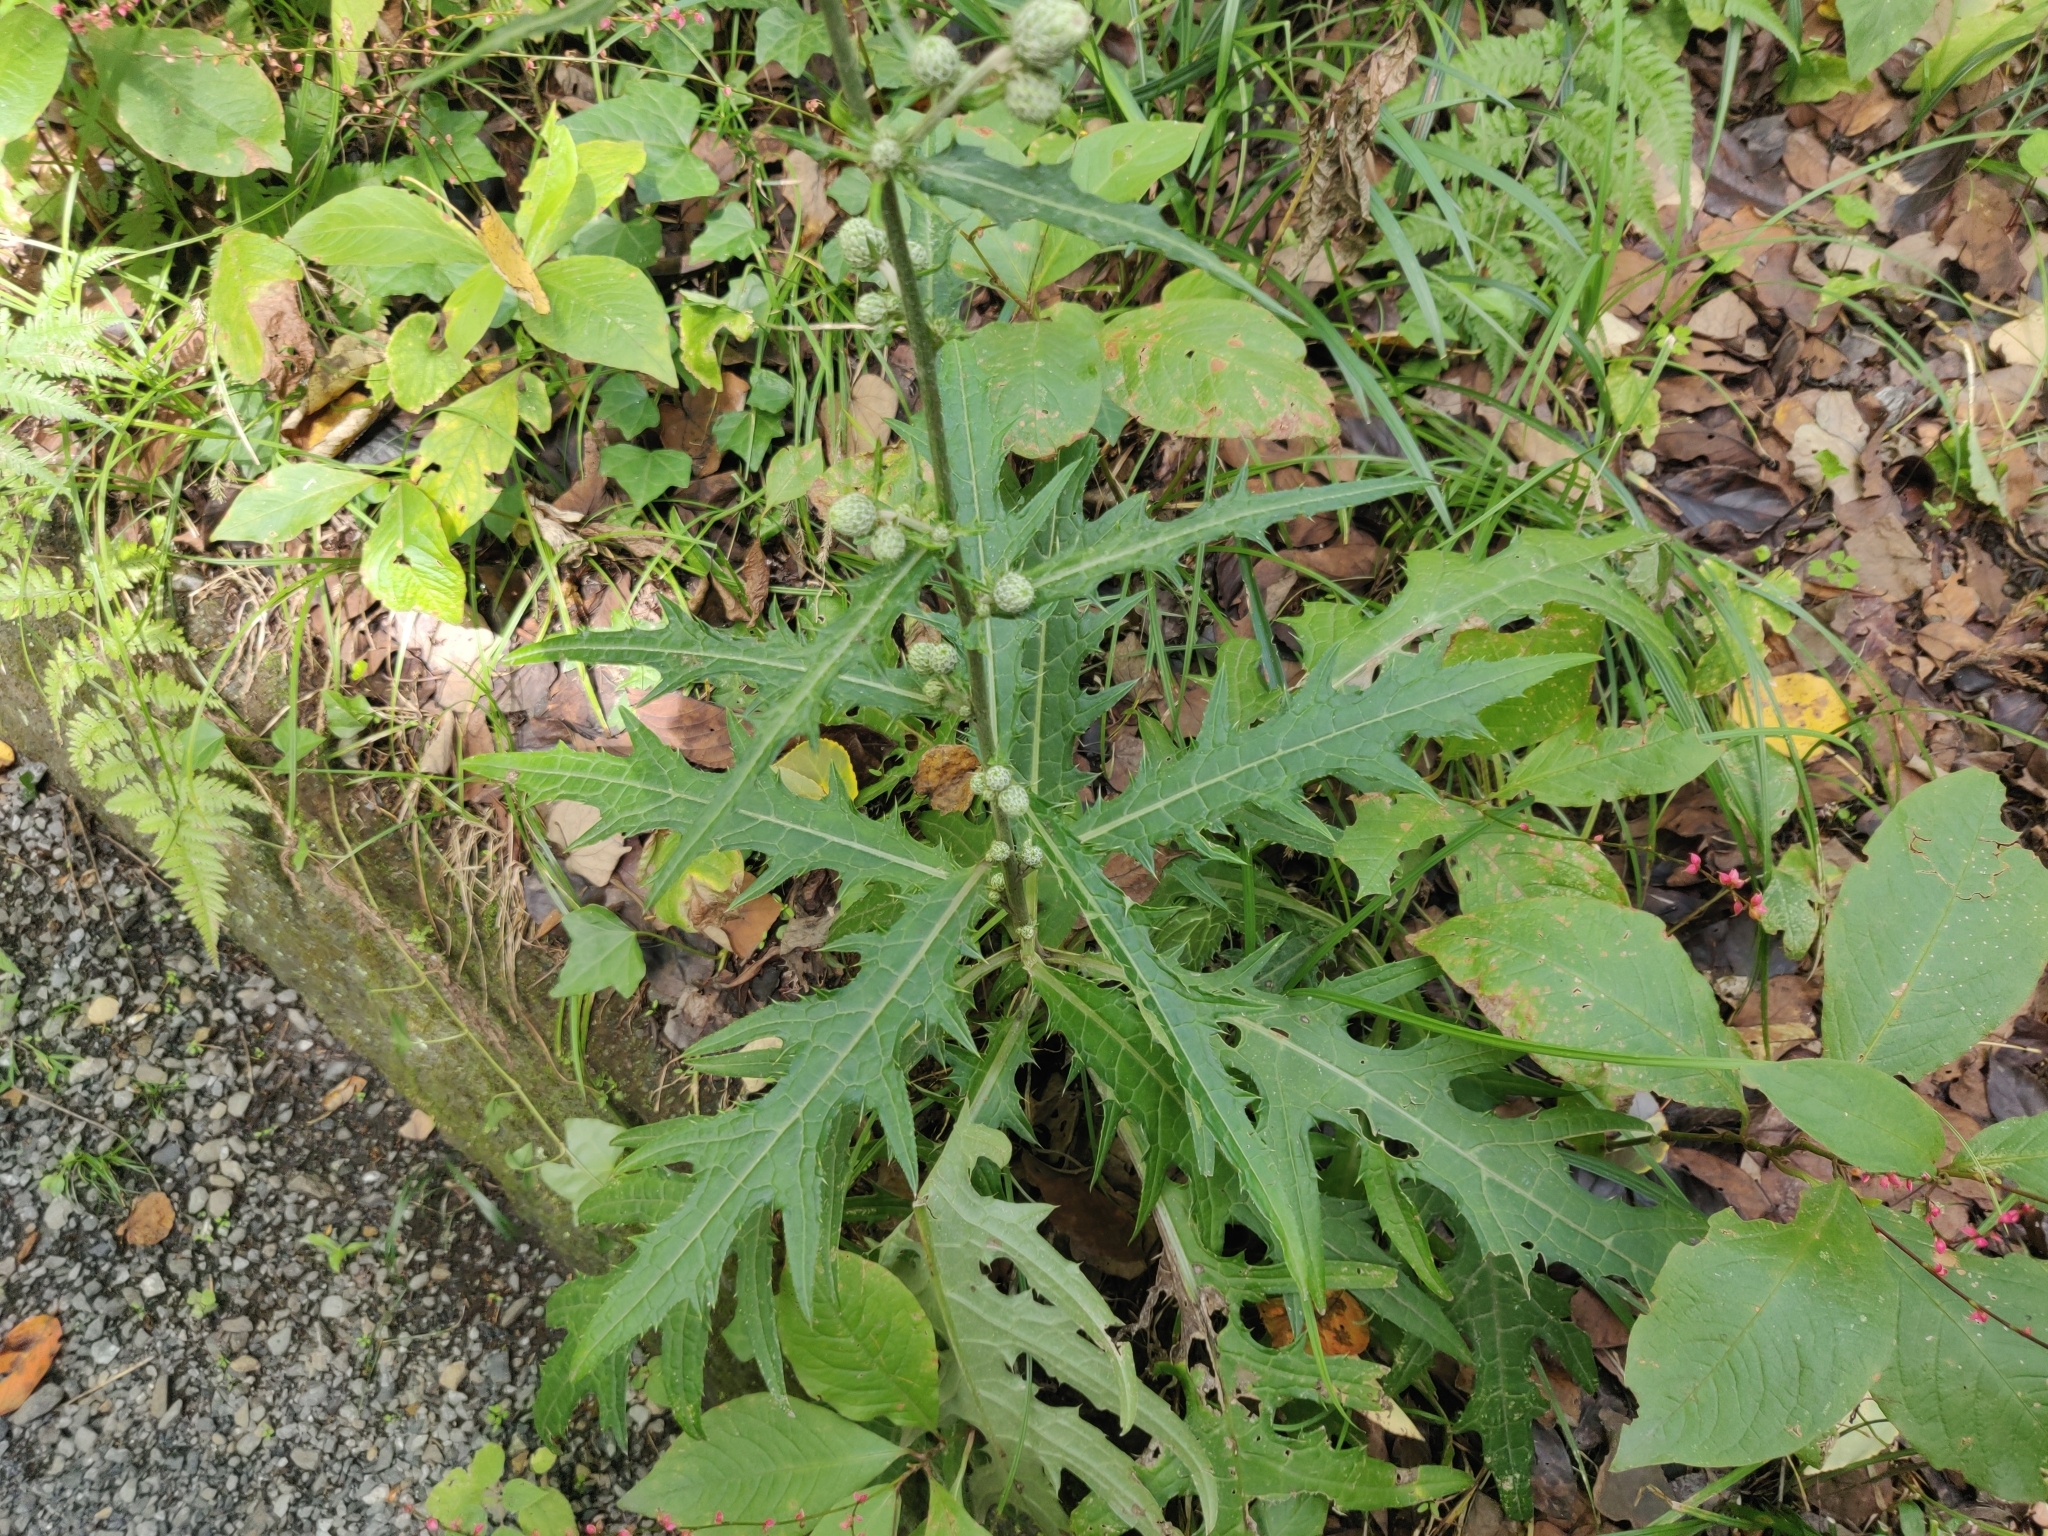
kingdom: Plantae
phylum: Tracheophyta
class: Magnoliopsida
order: Asterales
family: Asteraceae
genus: Cirsium
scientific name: Cirsium microspicatum
